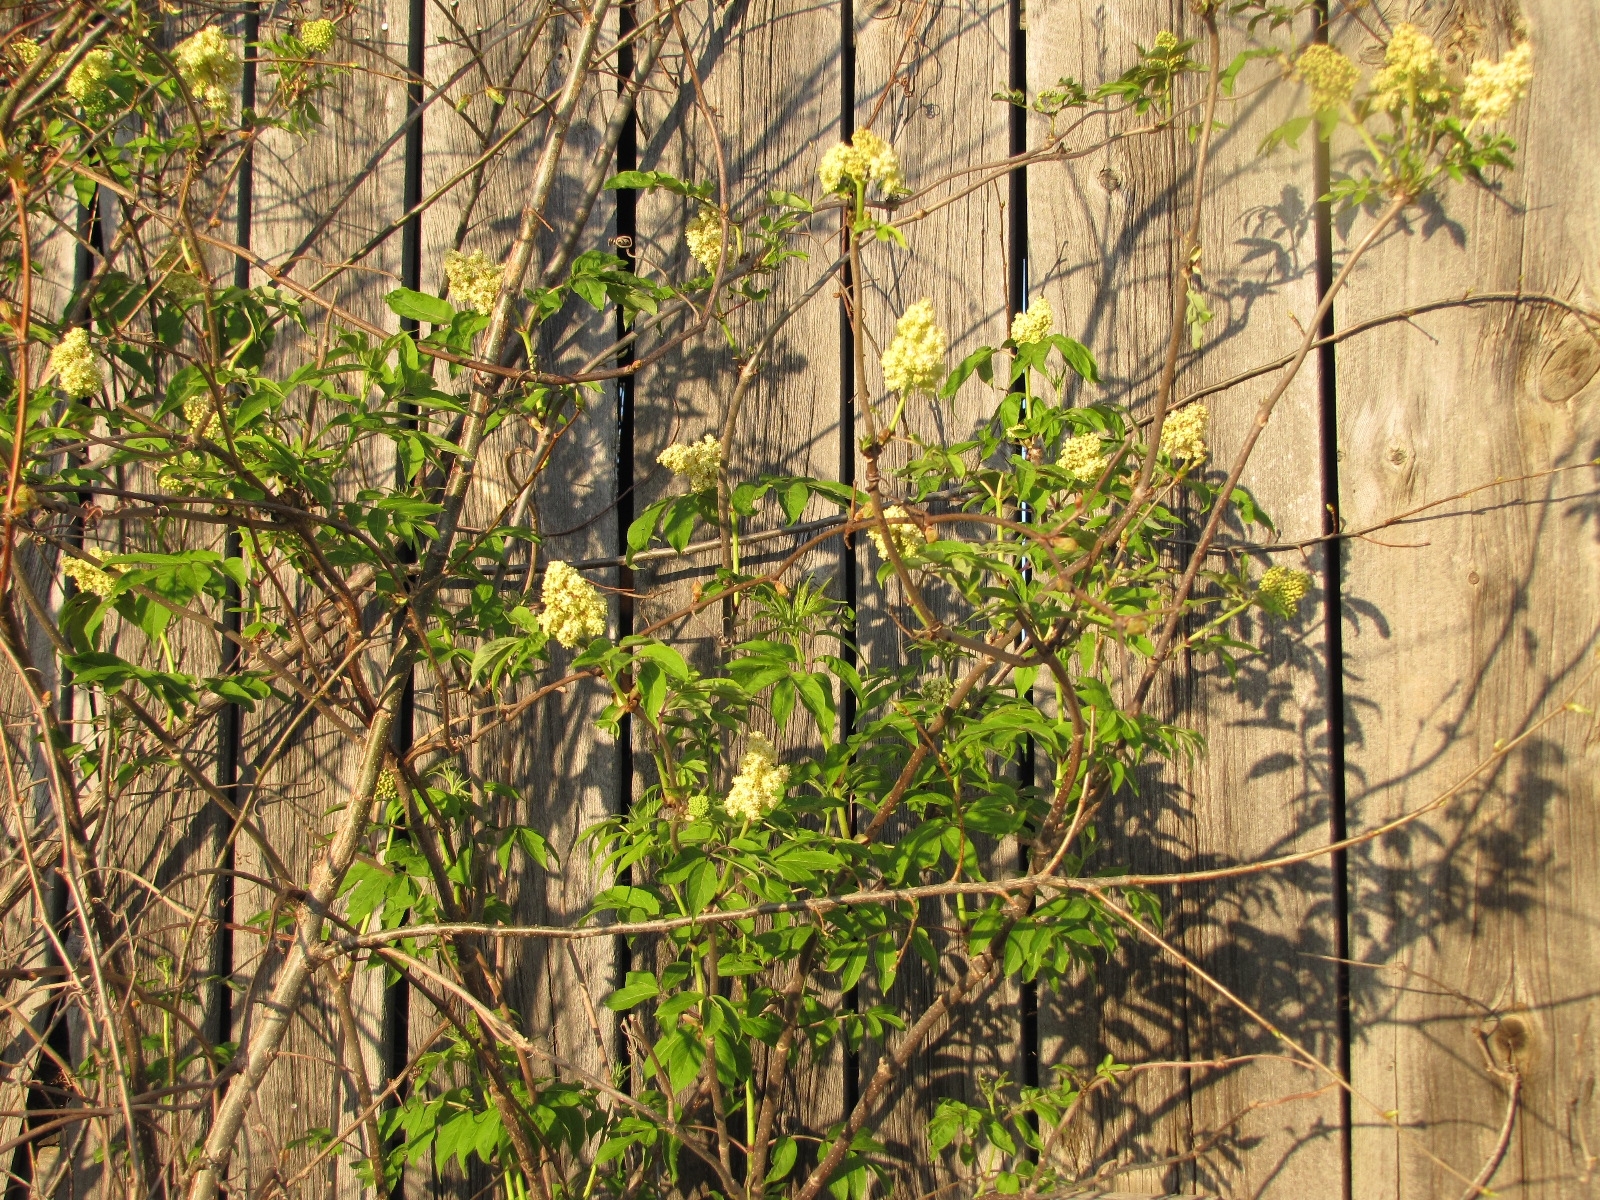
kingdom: Plantae
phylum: Tracheophyta
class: Magnoliopsida
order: Dipsacales
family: Viburnaceae
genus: Sambucus
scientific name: Sambucus racemosa
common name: Red-berried elder
